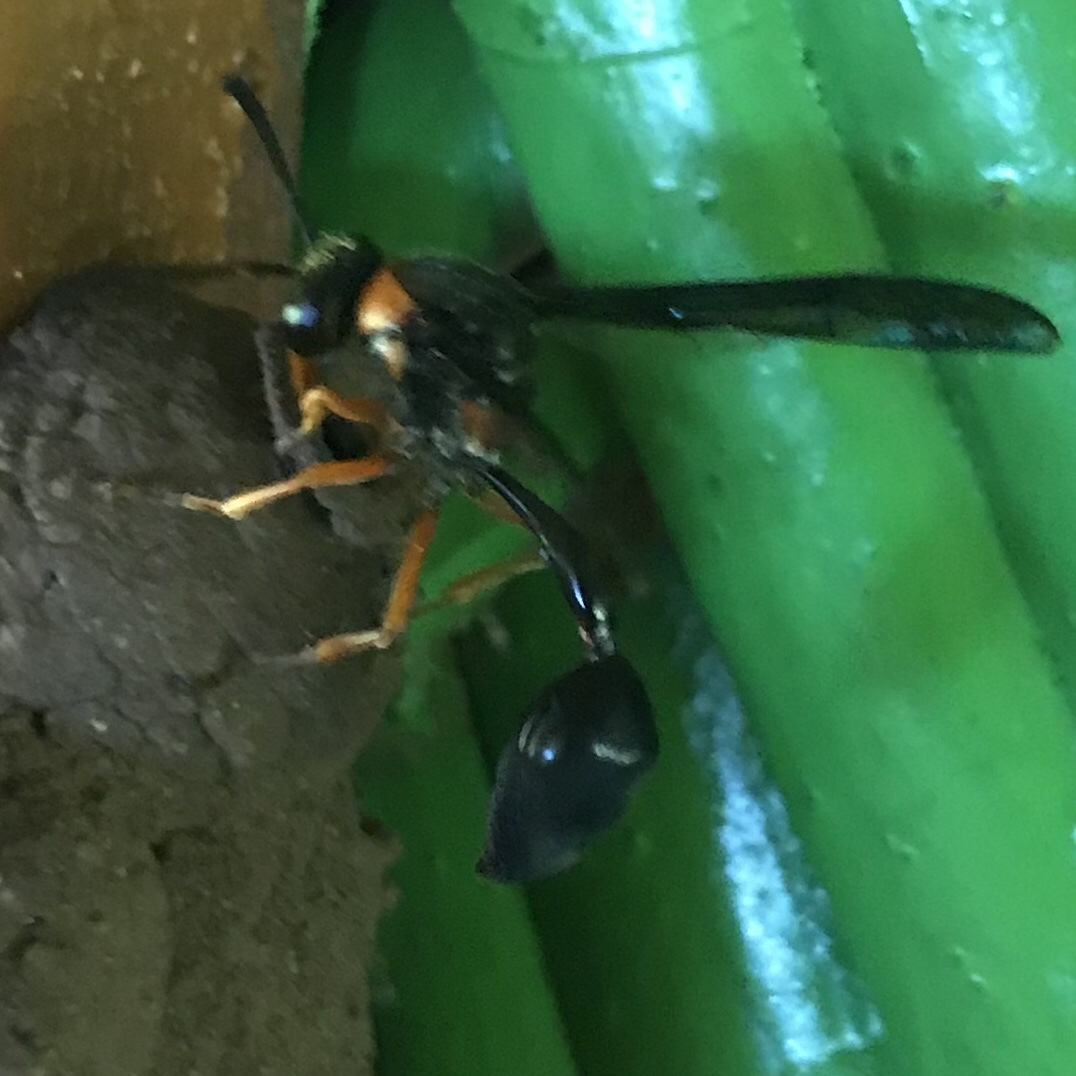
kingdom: Animalia
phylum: Arthropoda
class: Insecta
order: Hymenoptera
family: Eumenidae
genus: Delta
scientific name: Delta insulare
